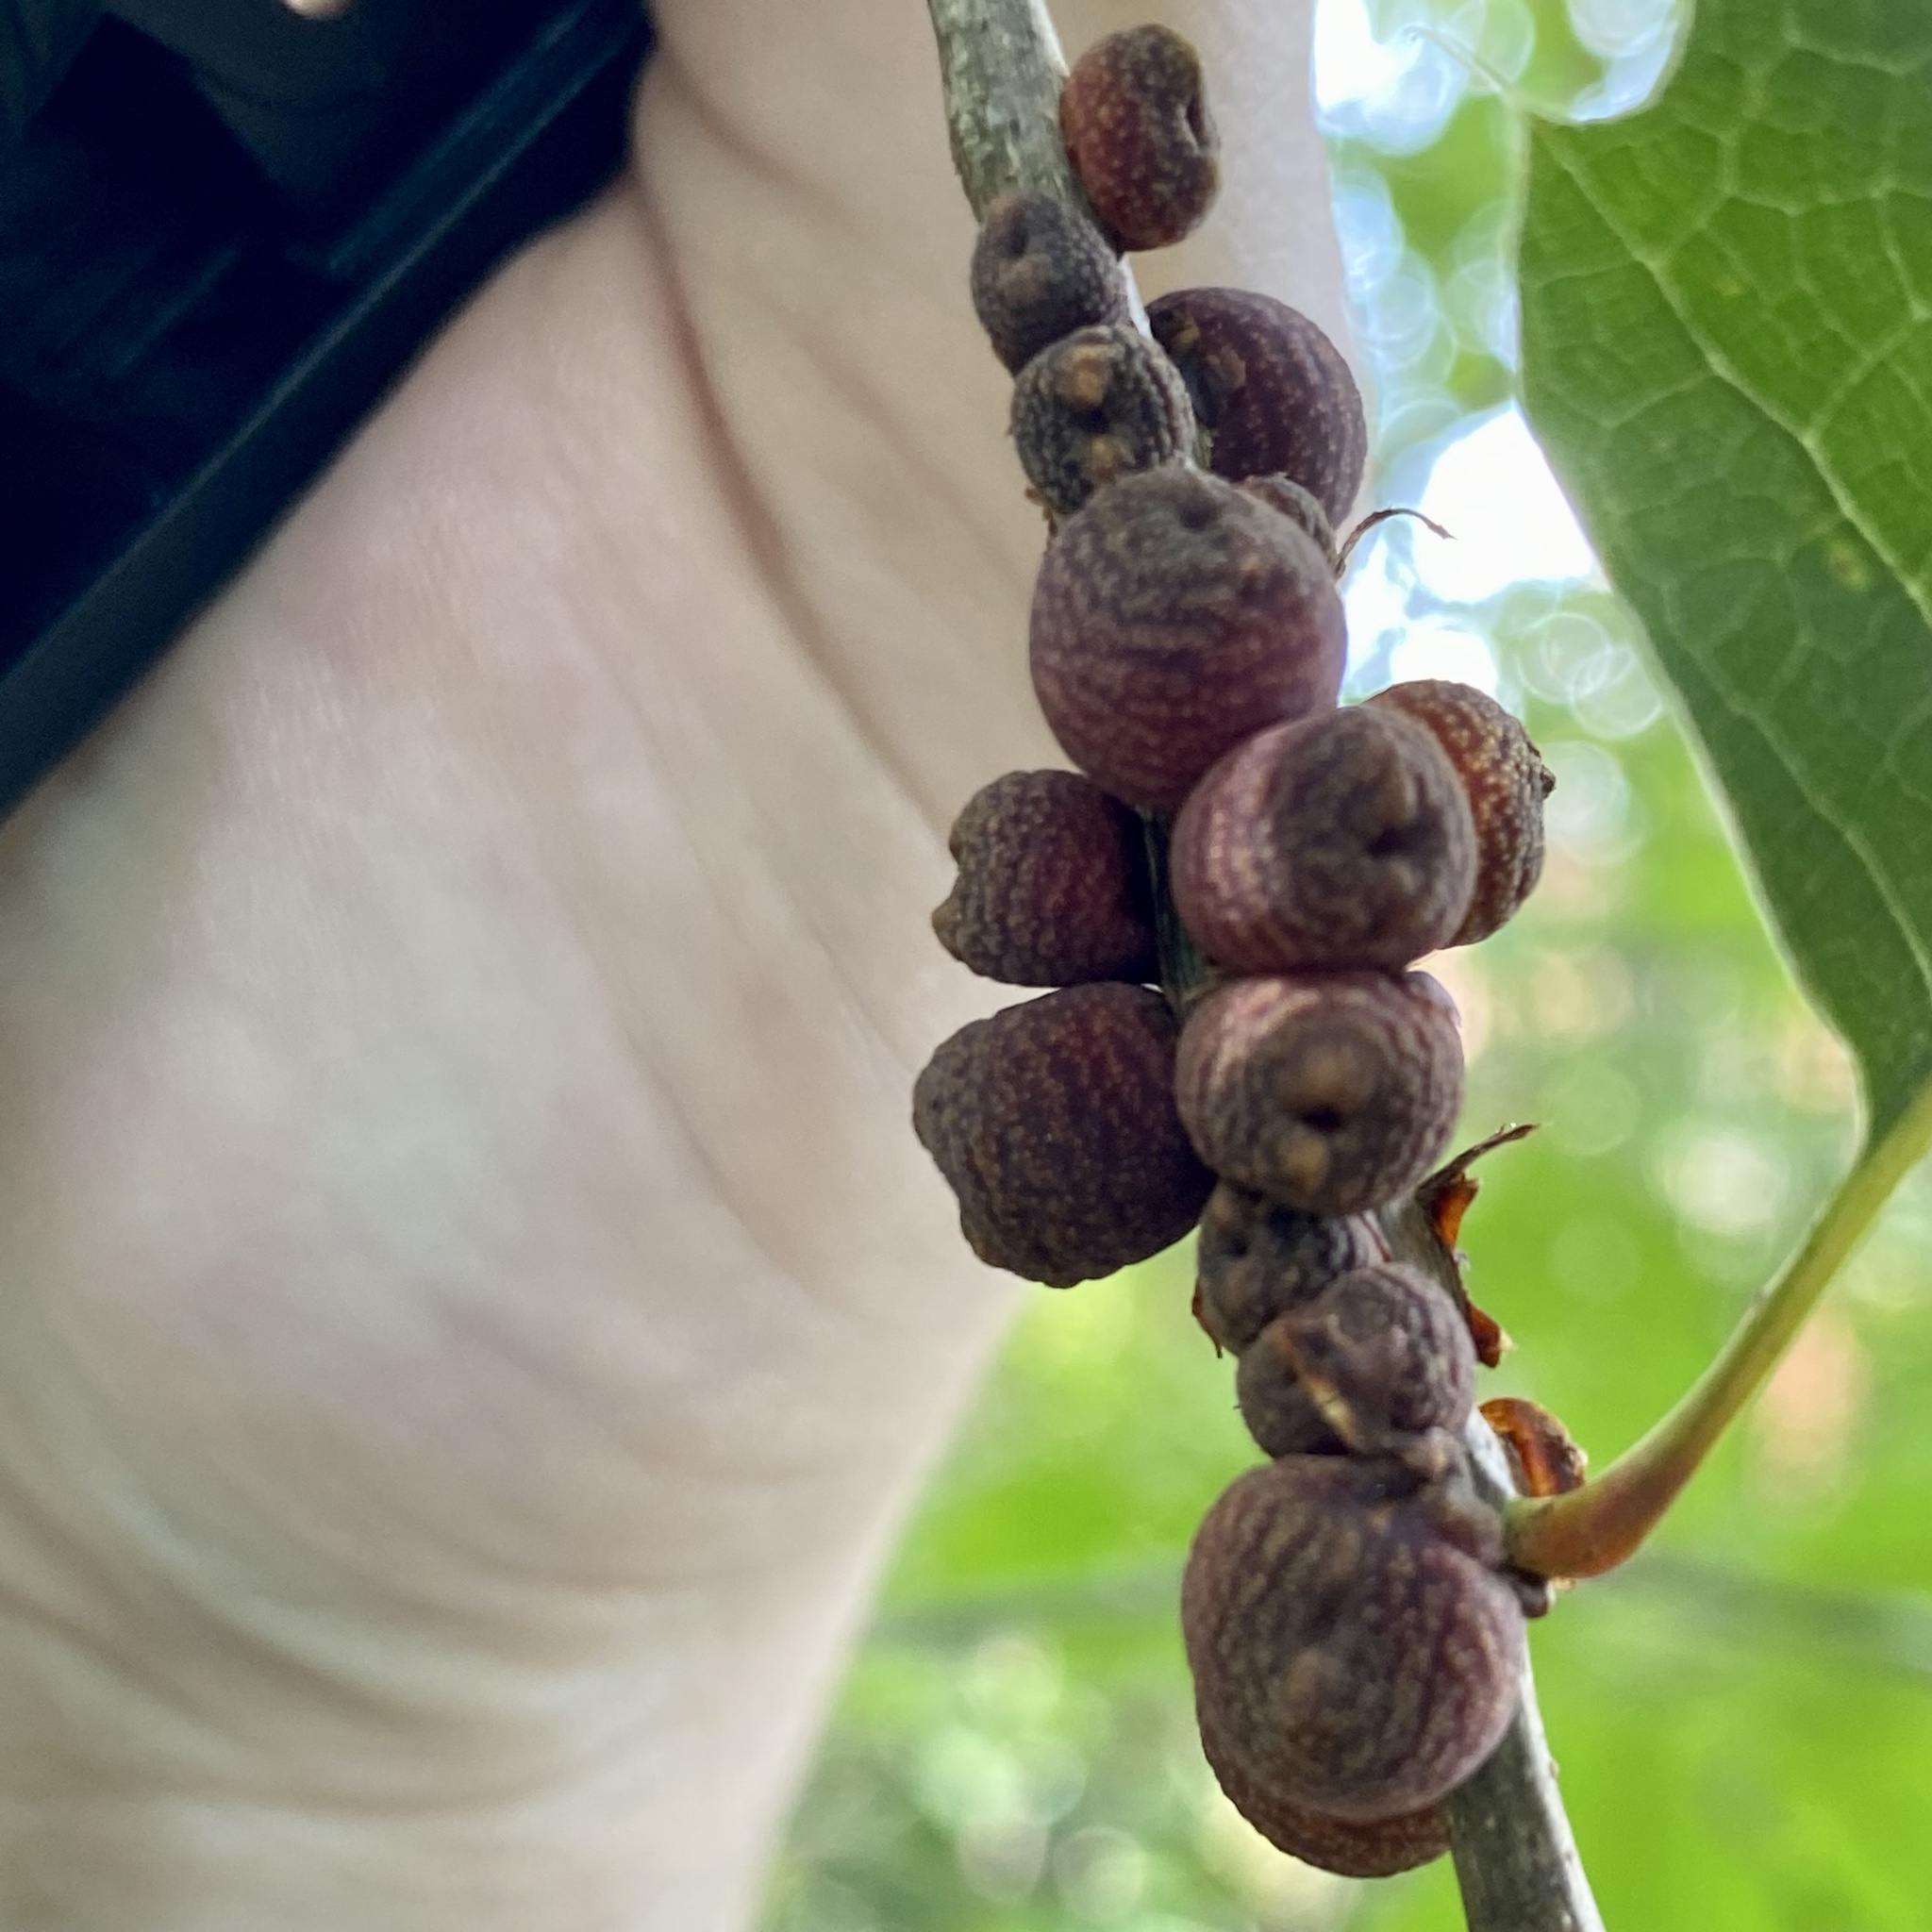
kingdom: Animalia
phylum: Arthropoda
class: Insecta
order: Hymenoptera
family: Cynipidae
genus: Kokkocynips
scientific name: Kokkocynips imbricariae
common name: Banded bullet gall wasp
